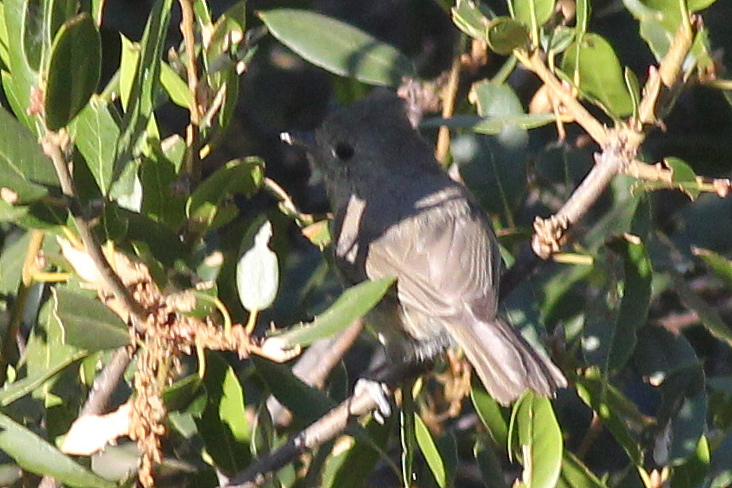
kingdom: Animalia
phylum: Chordata
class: Aves
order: Passeriformes
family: Paridae
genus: Baeolophus
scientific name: Baeolophus inornatus
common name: Oak titmouse
